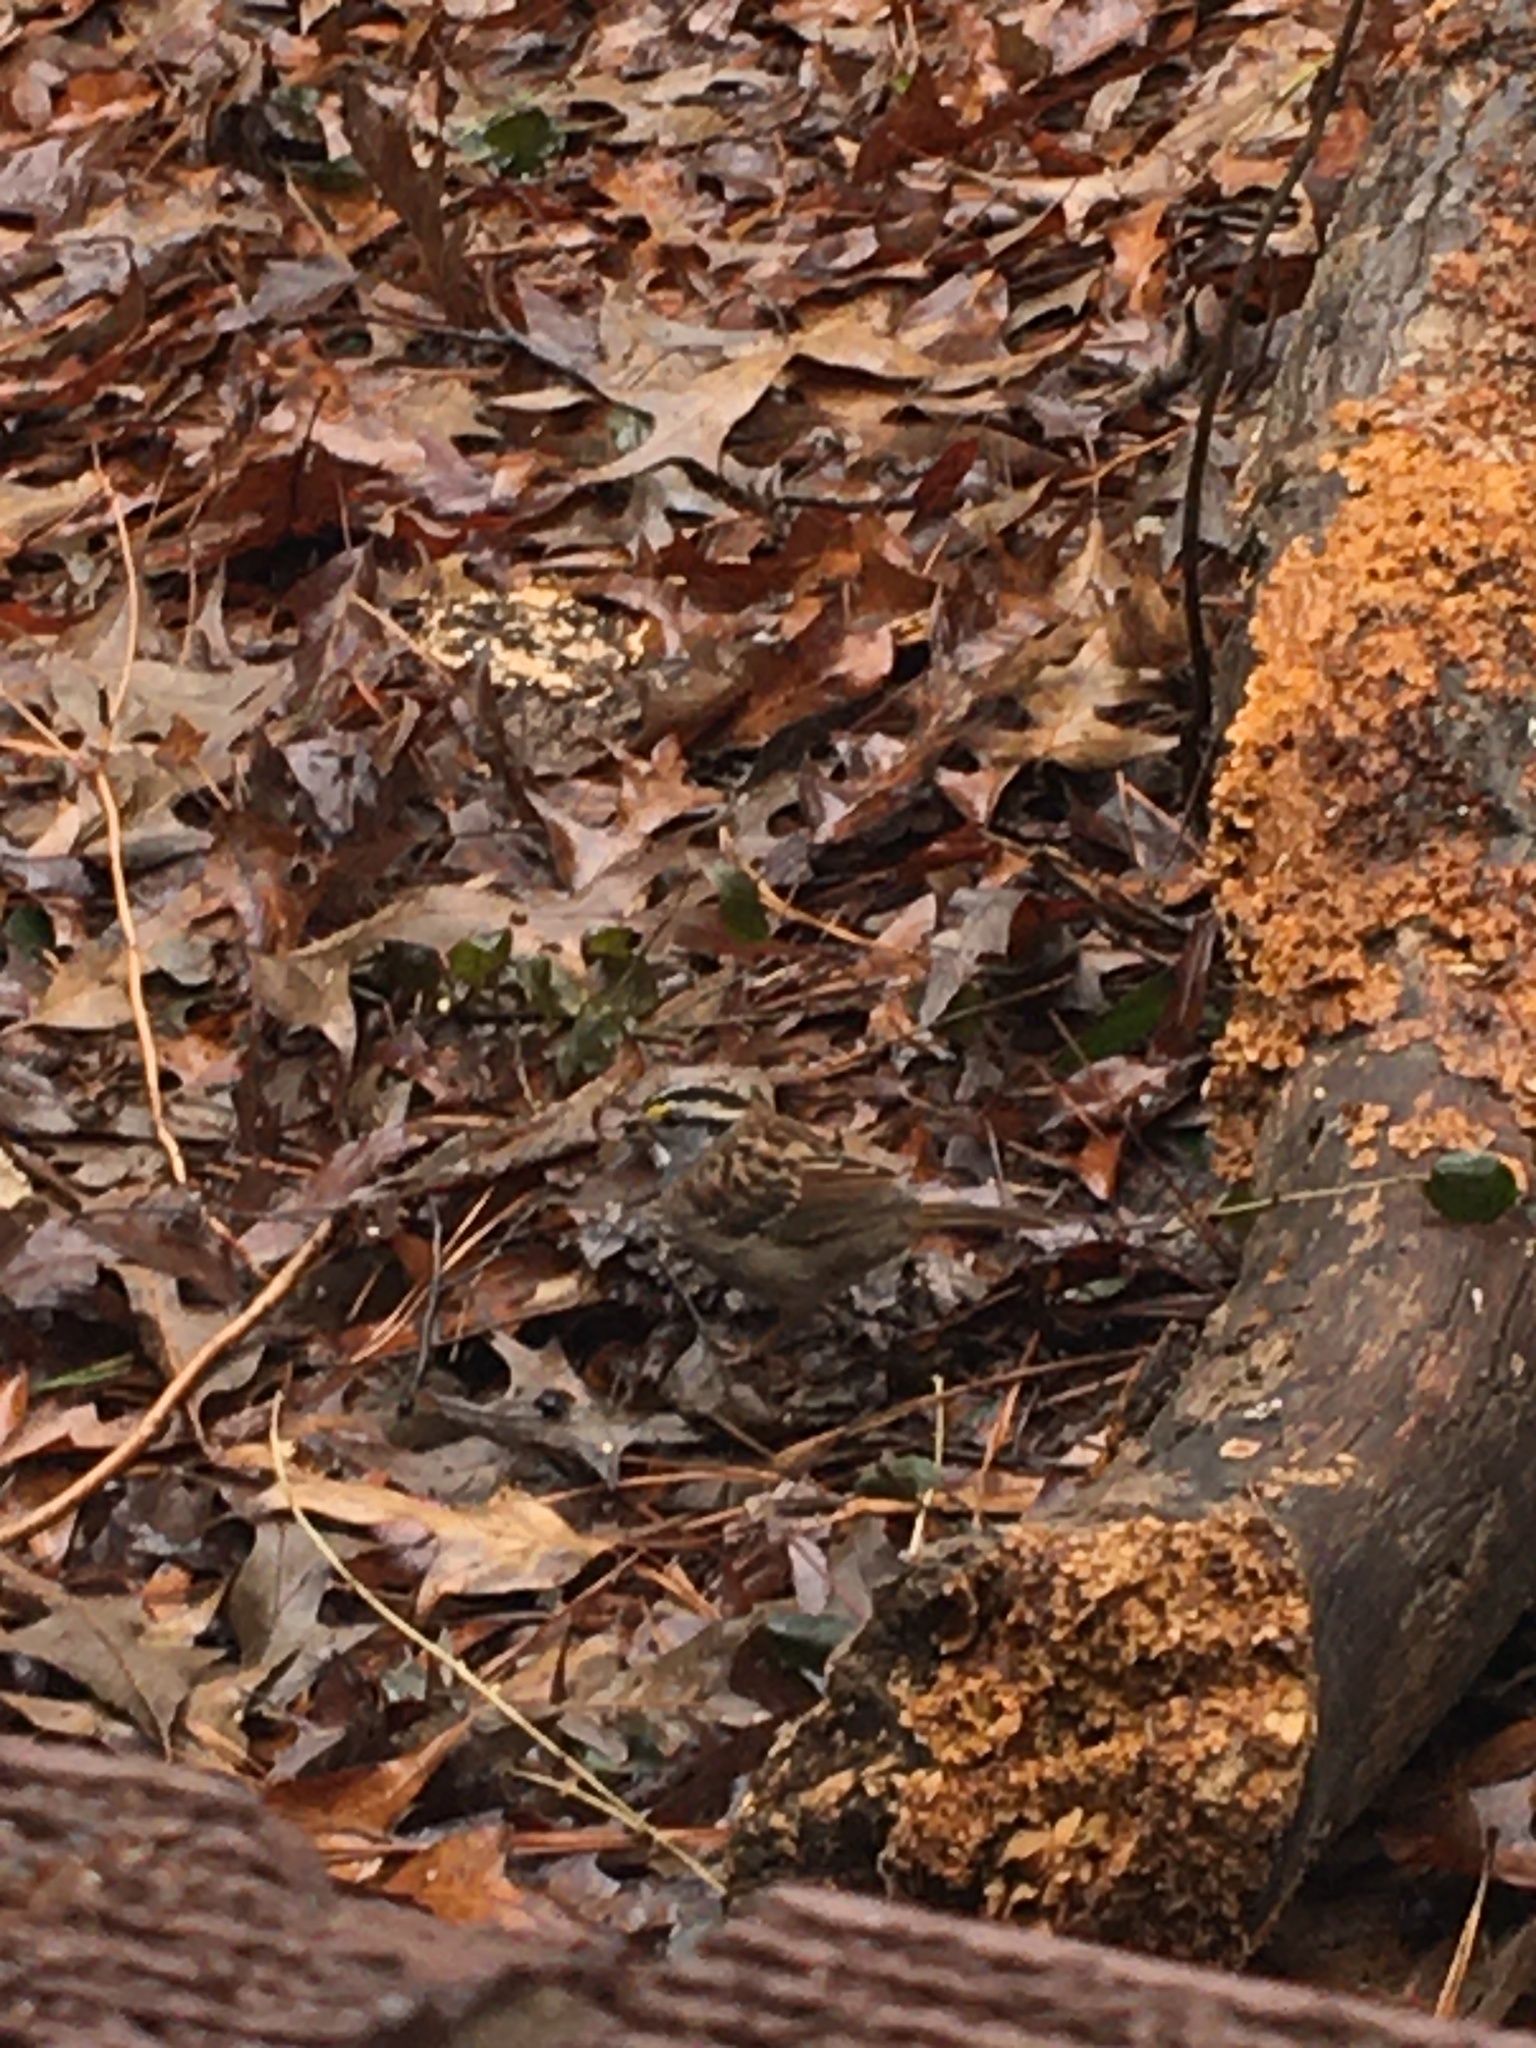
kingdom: Animalia
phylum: Chordata
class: Aves
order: Passeriformes
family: Passerellidae
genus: Zonotrichia
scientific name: Zonotrichia albicollis
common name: White-throated sparrow
